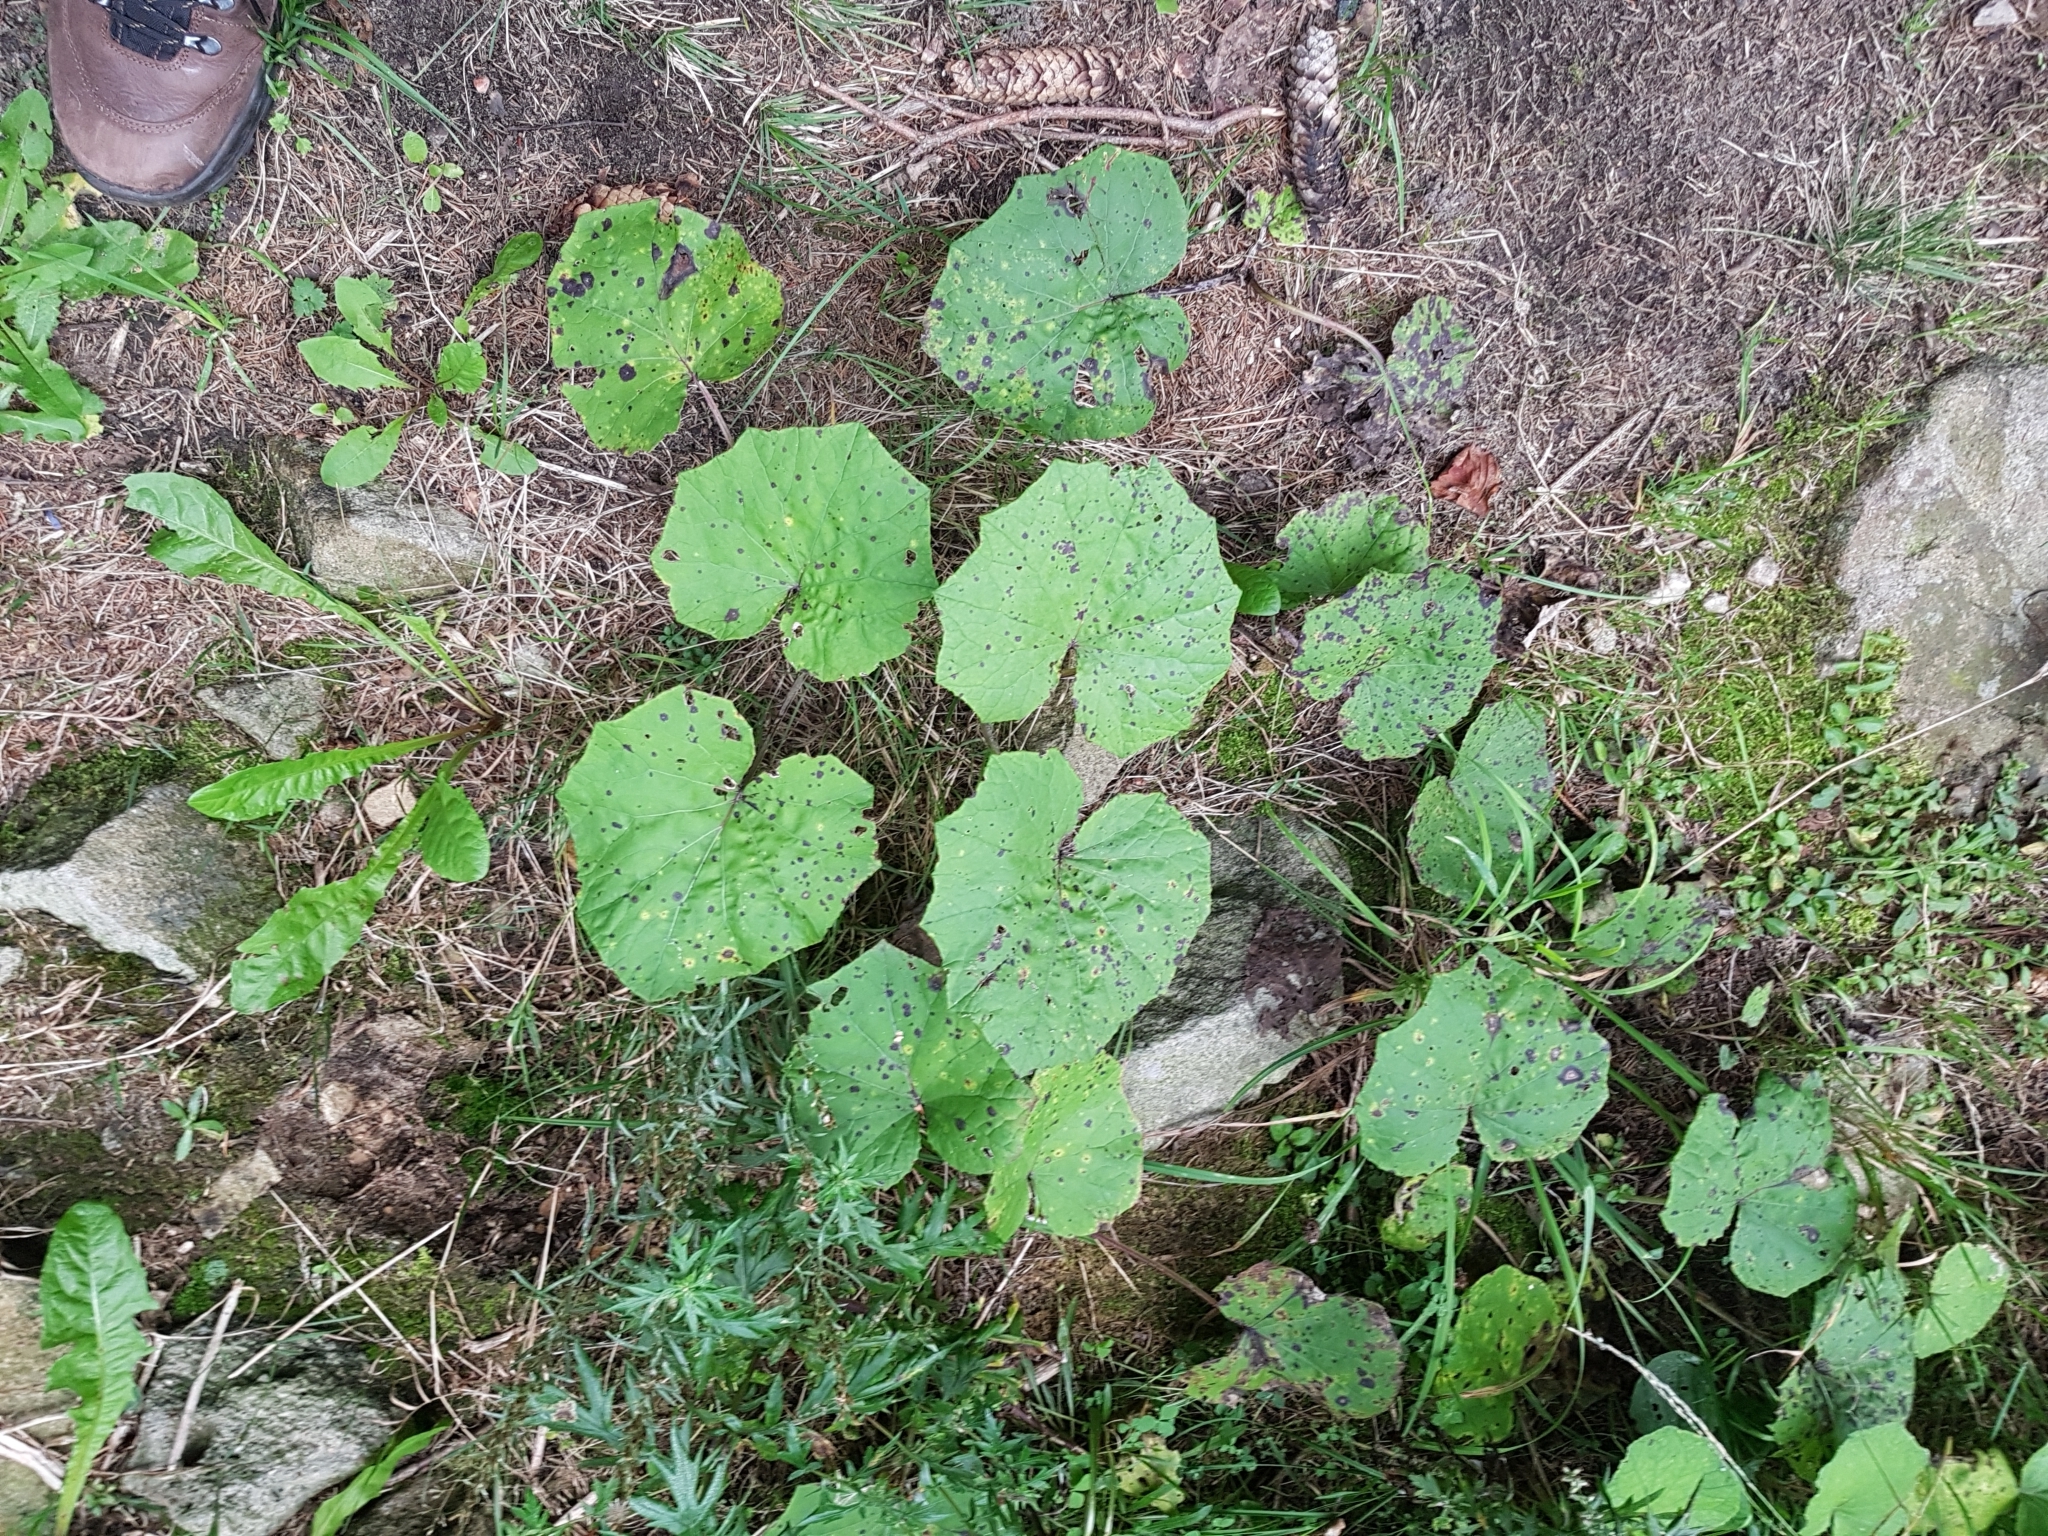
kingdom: Plantae
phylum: Tracheophyta
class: Magnoliopsida
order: Asterales
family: Asteraceae
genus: Tussilago
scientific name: Tussilago farfara
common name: Coltsfoot
